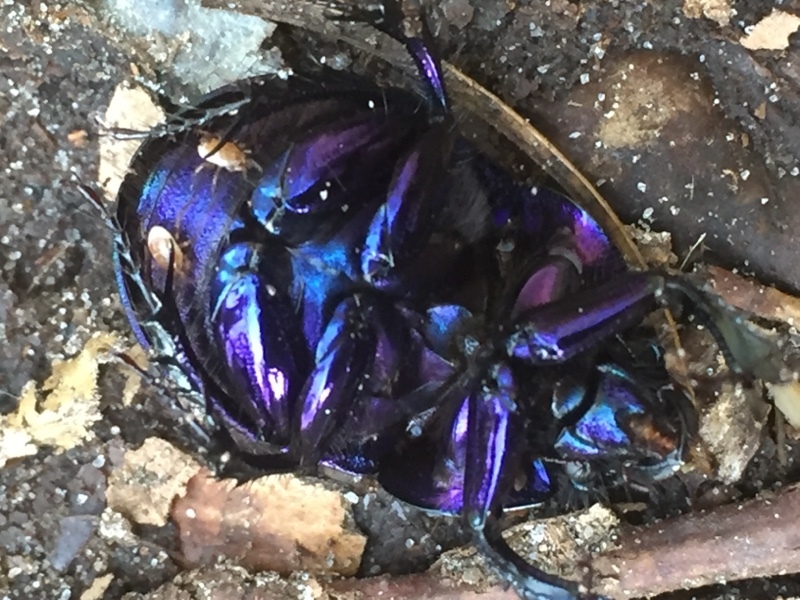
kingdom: Animalia
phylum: Arthropoda
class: Insecta
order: Coleoptera
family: Geotrupidae
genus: Anoplotrupes
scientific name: Anoplotrupes stercorosus
